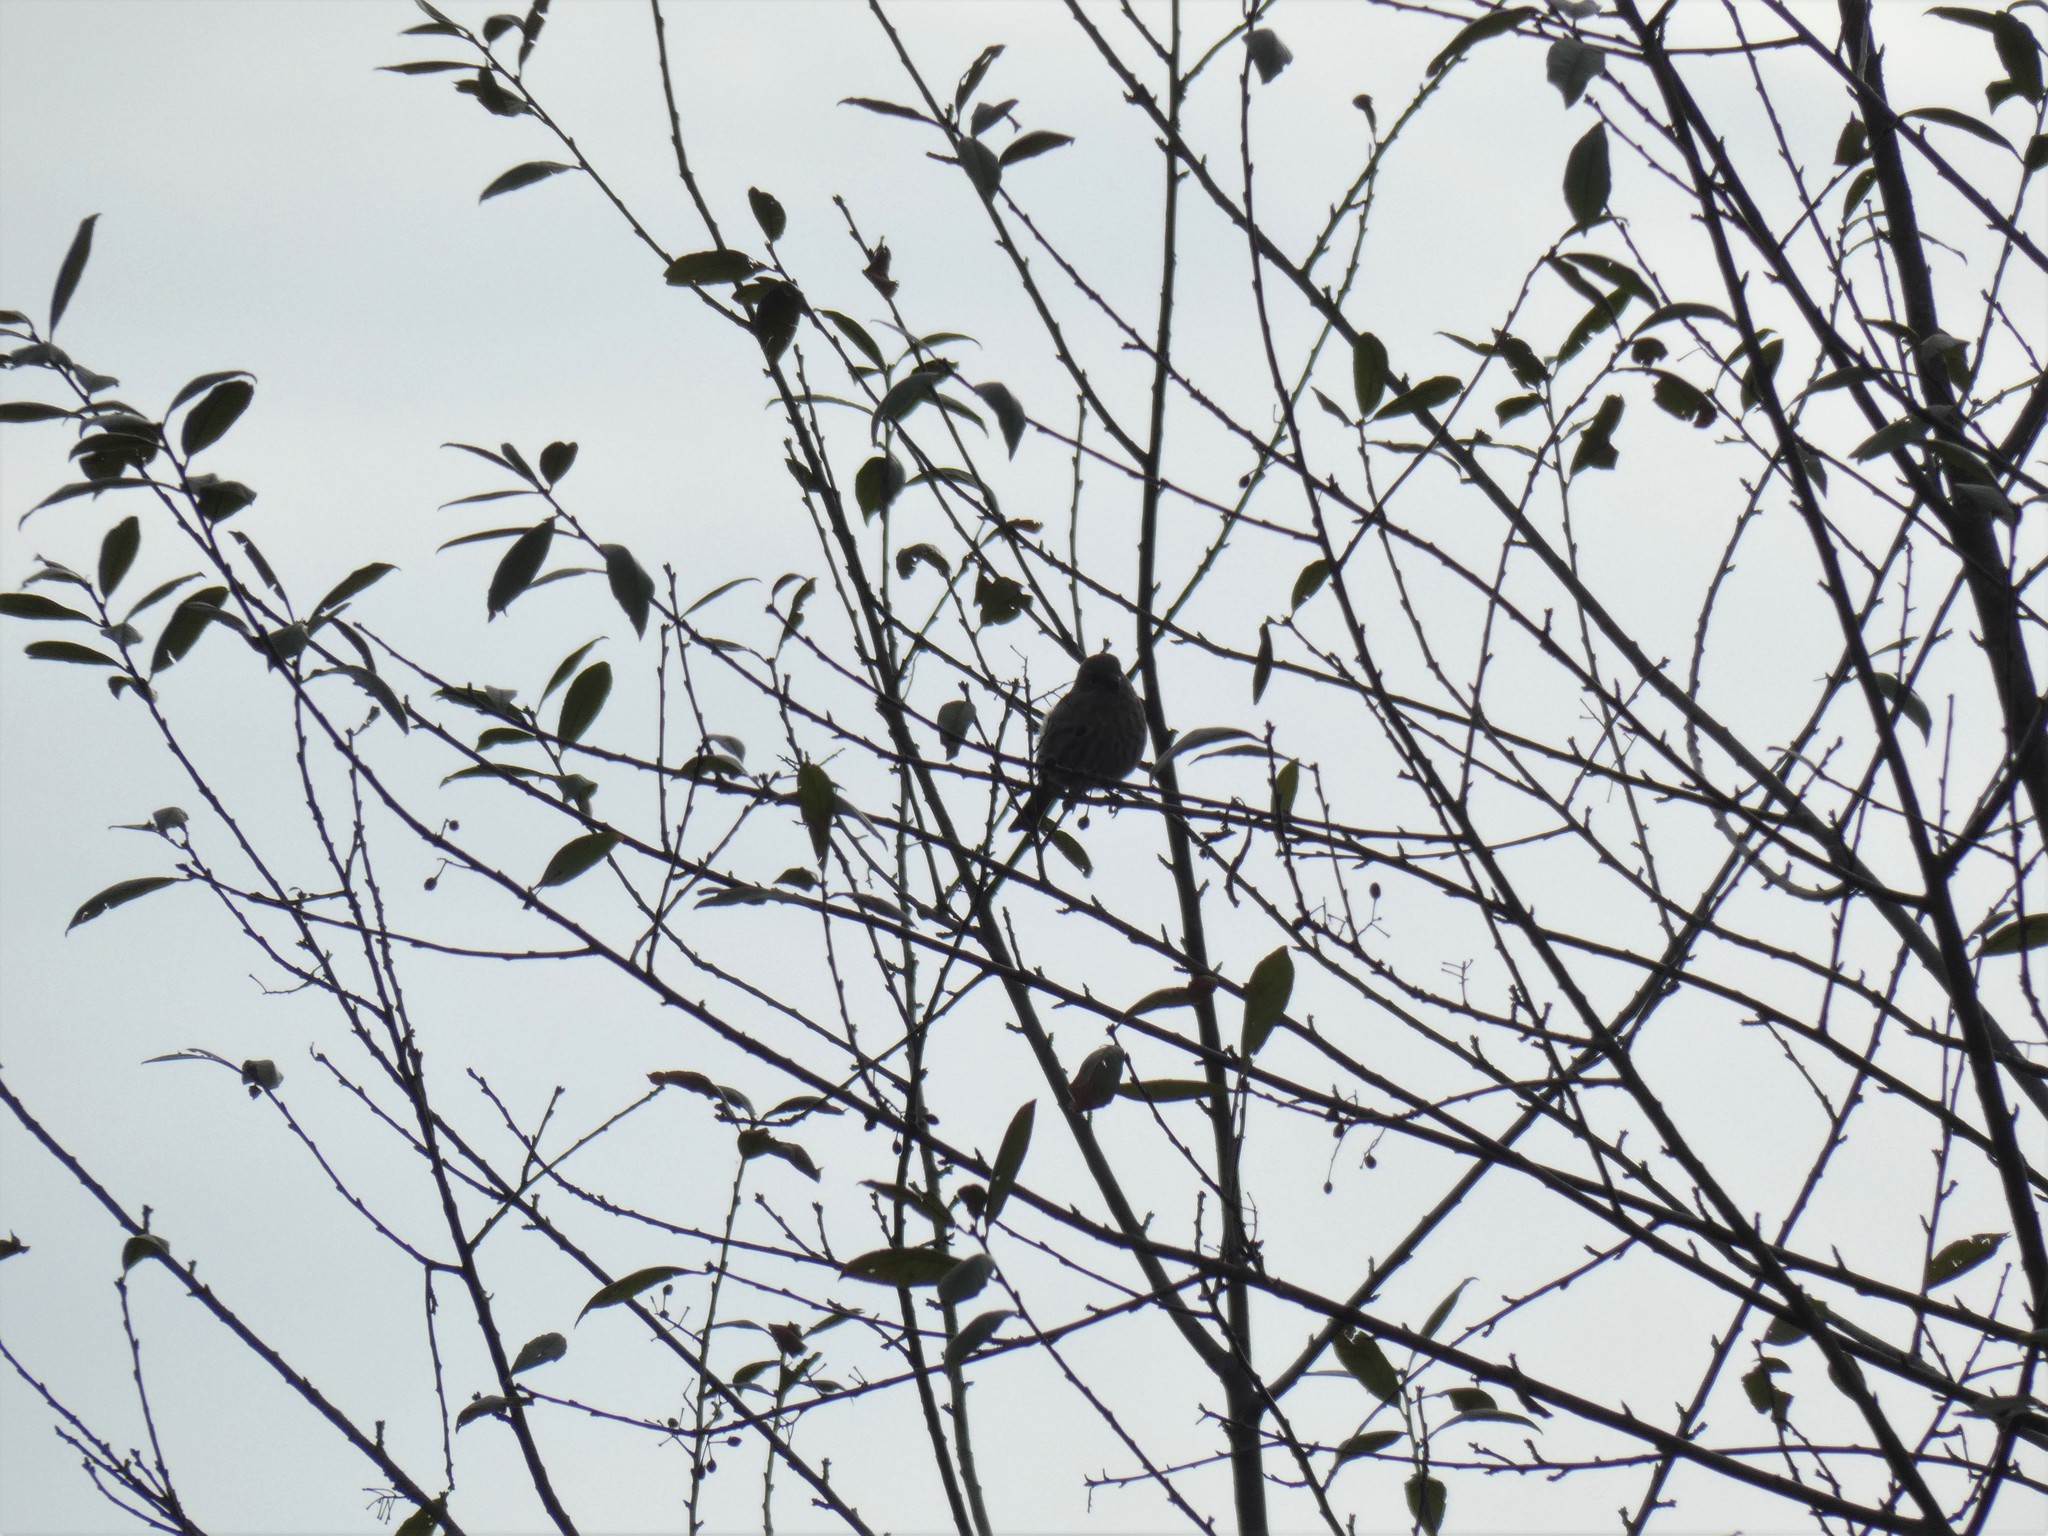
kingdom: Animalia
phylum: Chordata
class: Aves
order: Passeriformes
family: Fringillidae
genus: Haemorhous
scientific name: Haemorhous mexicanus
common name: House finch
